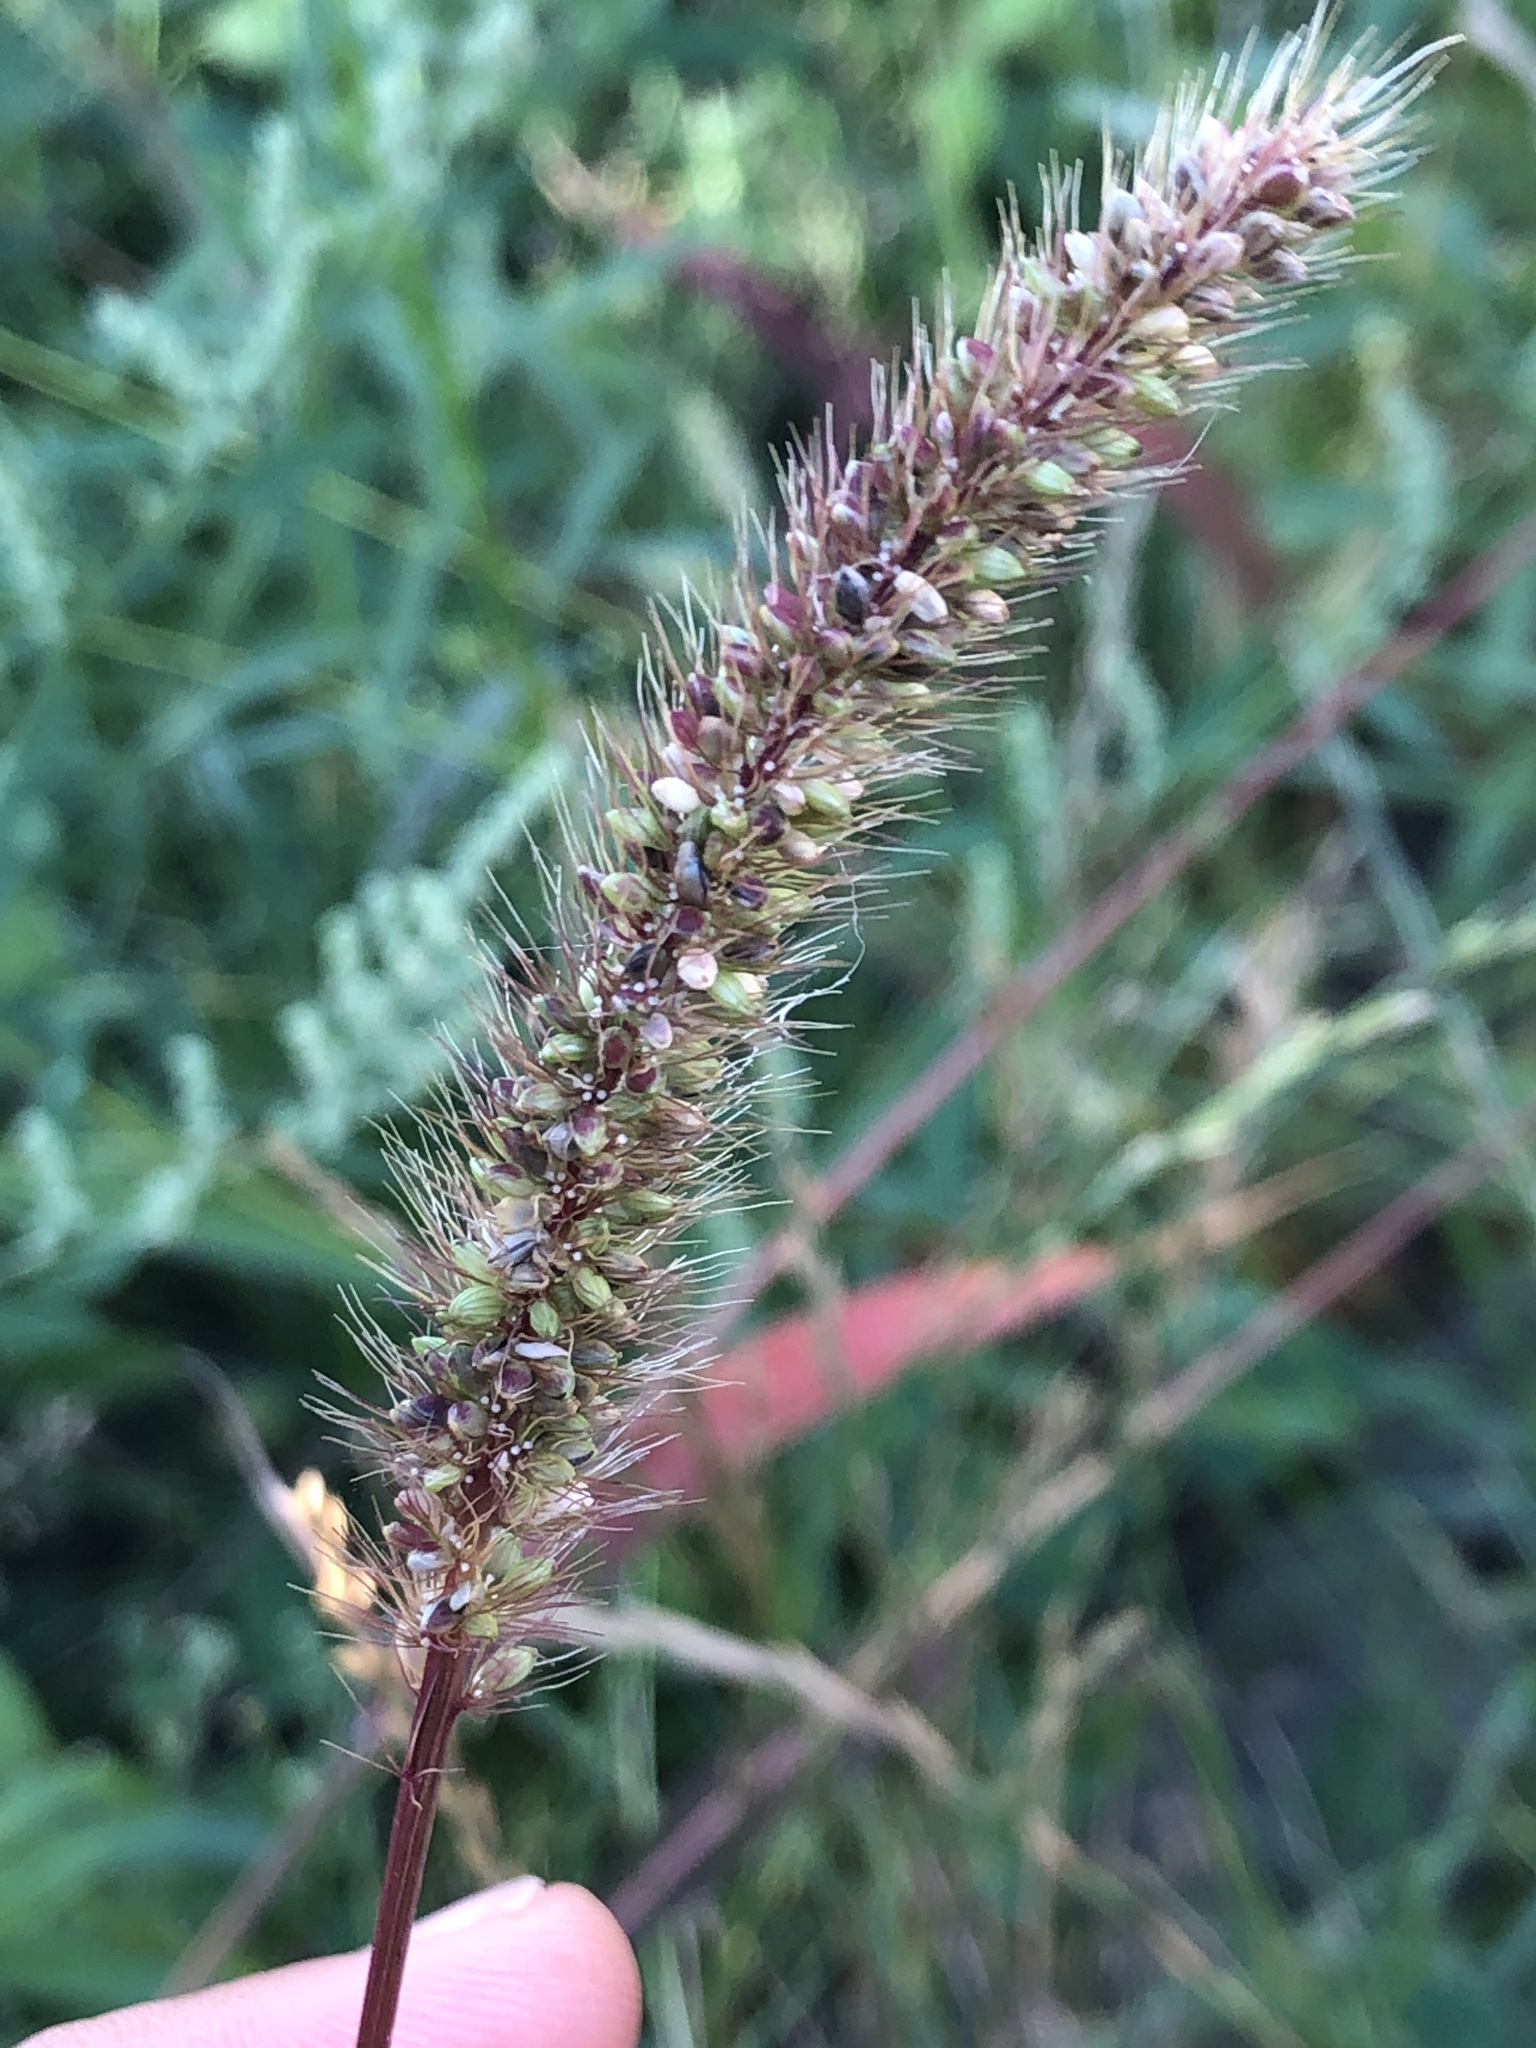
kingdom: Plantae
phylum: Tracheophyta
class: Liliopsida
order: Poales
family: Poaceae
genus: Setaria
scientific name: Setaria viridis
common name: Green bristlegrass
